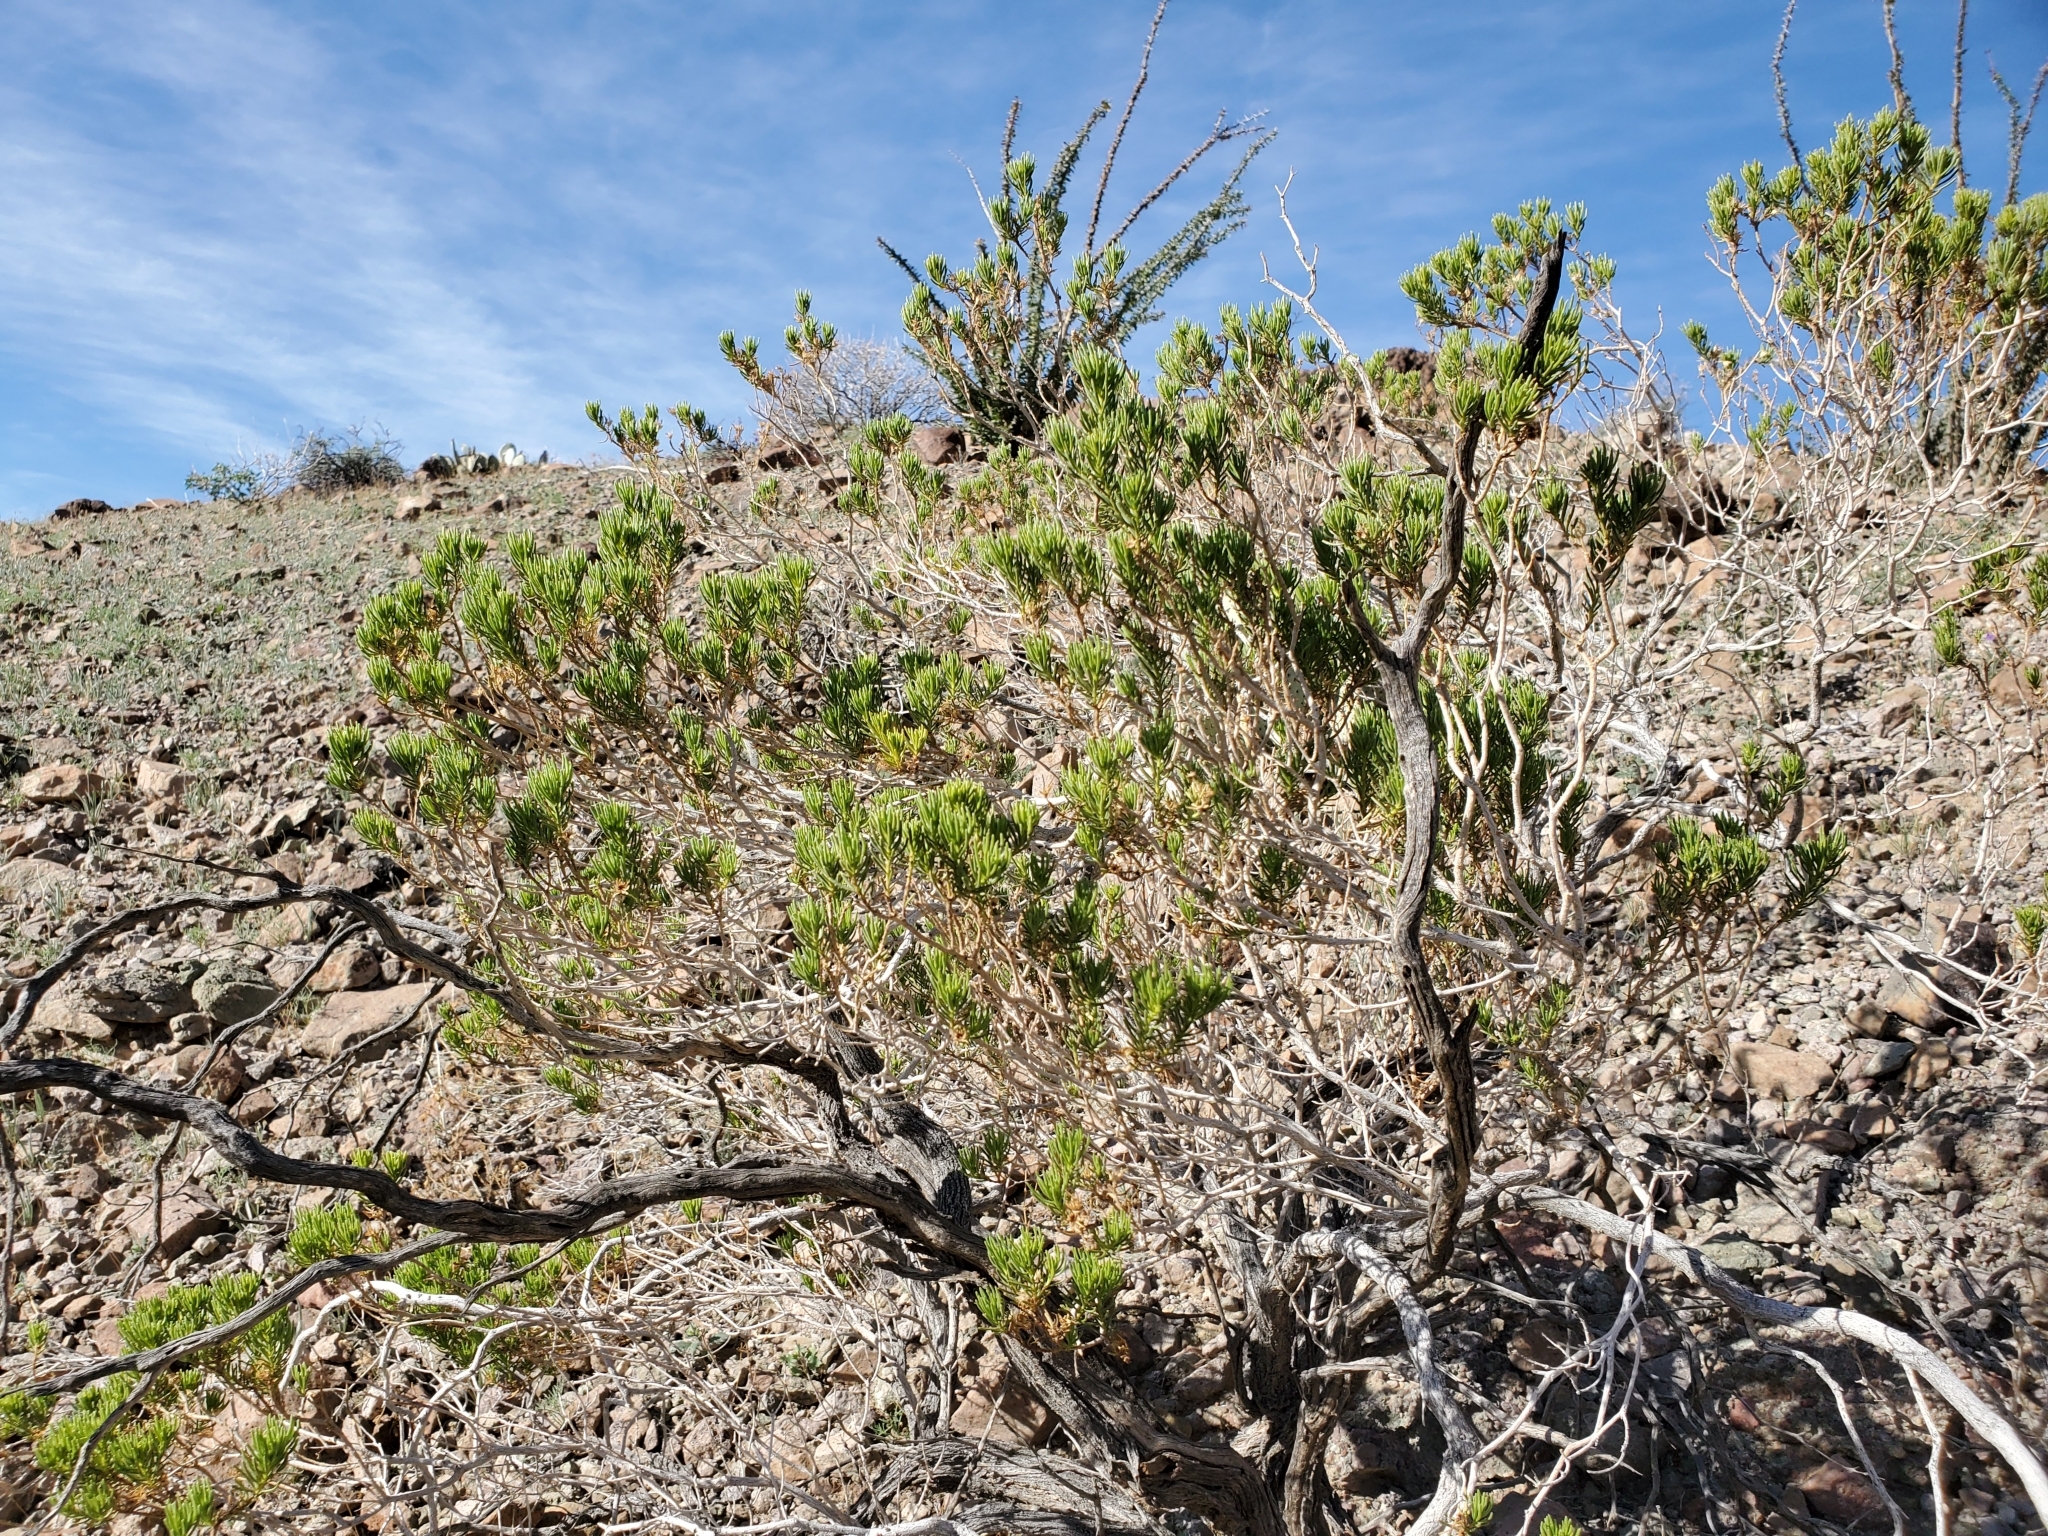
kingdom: Plantae
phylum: Tracheophyta
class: Magnoliopsida
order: Asterales
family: Asteraceae
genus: Peucephyllum
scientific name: Peucephyllum schottii
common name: Pygmy-cedar
